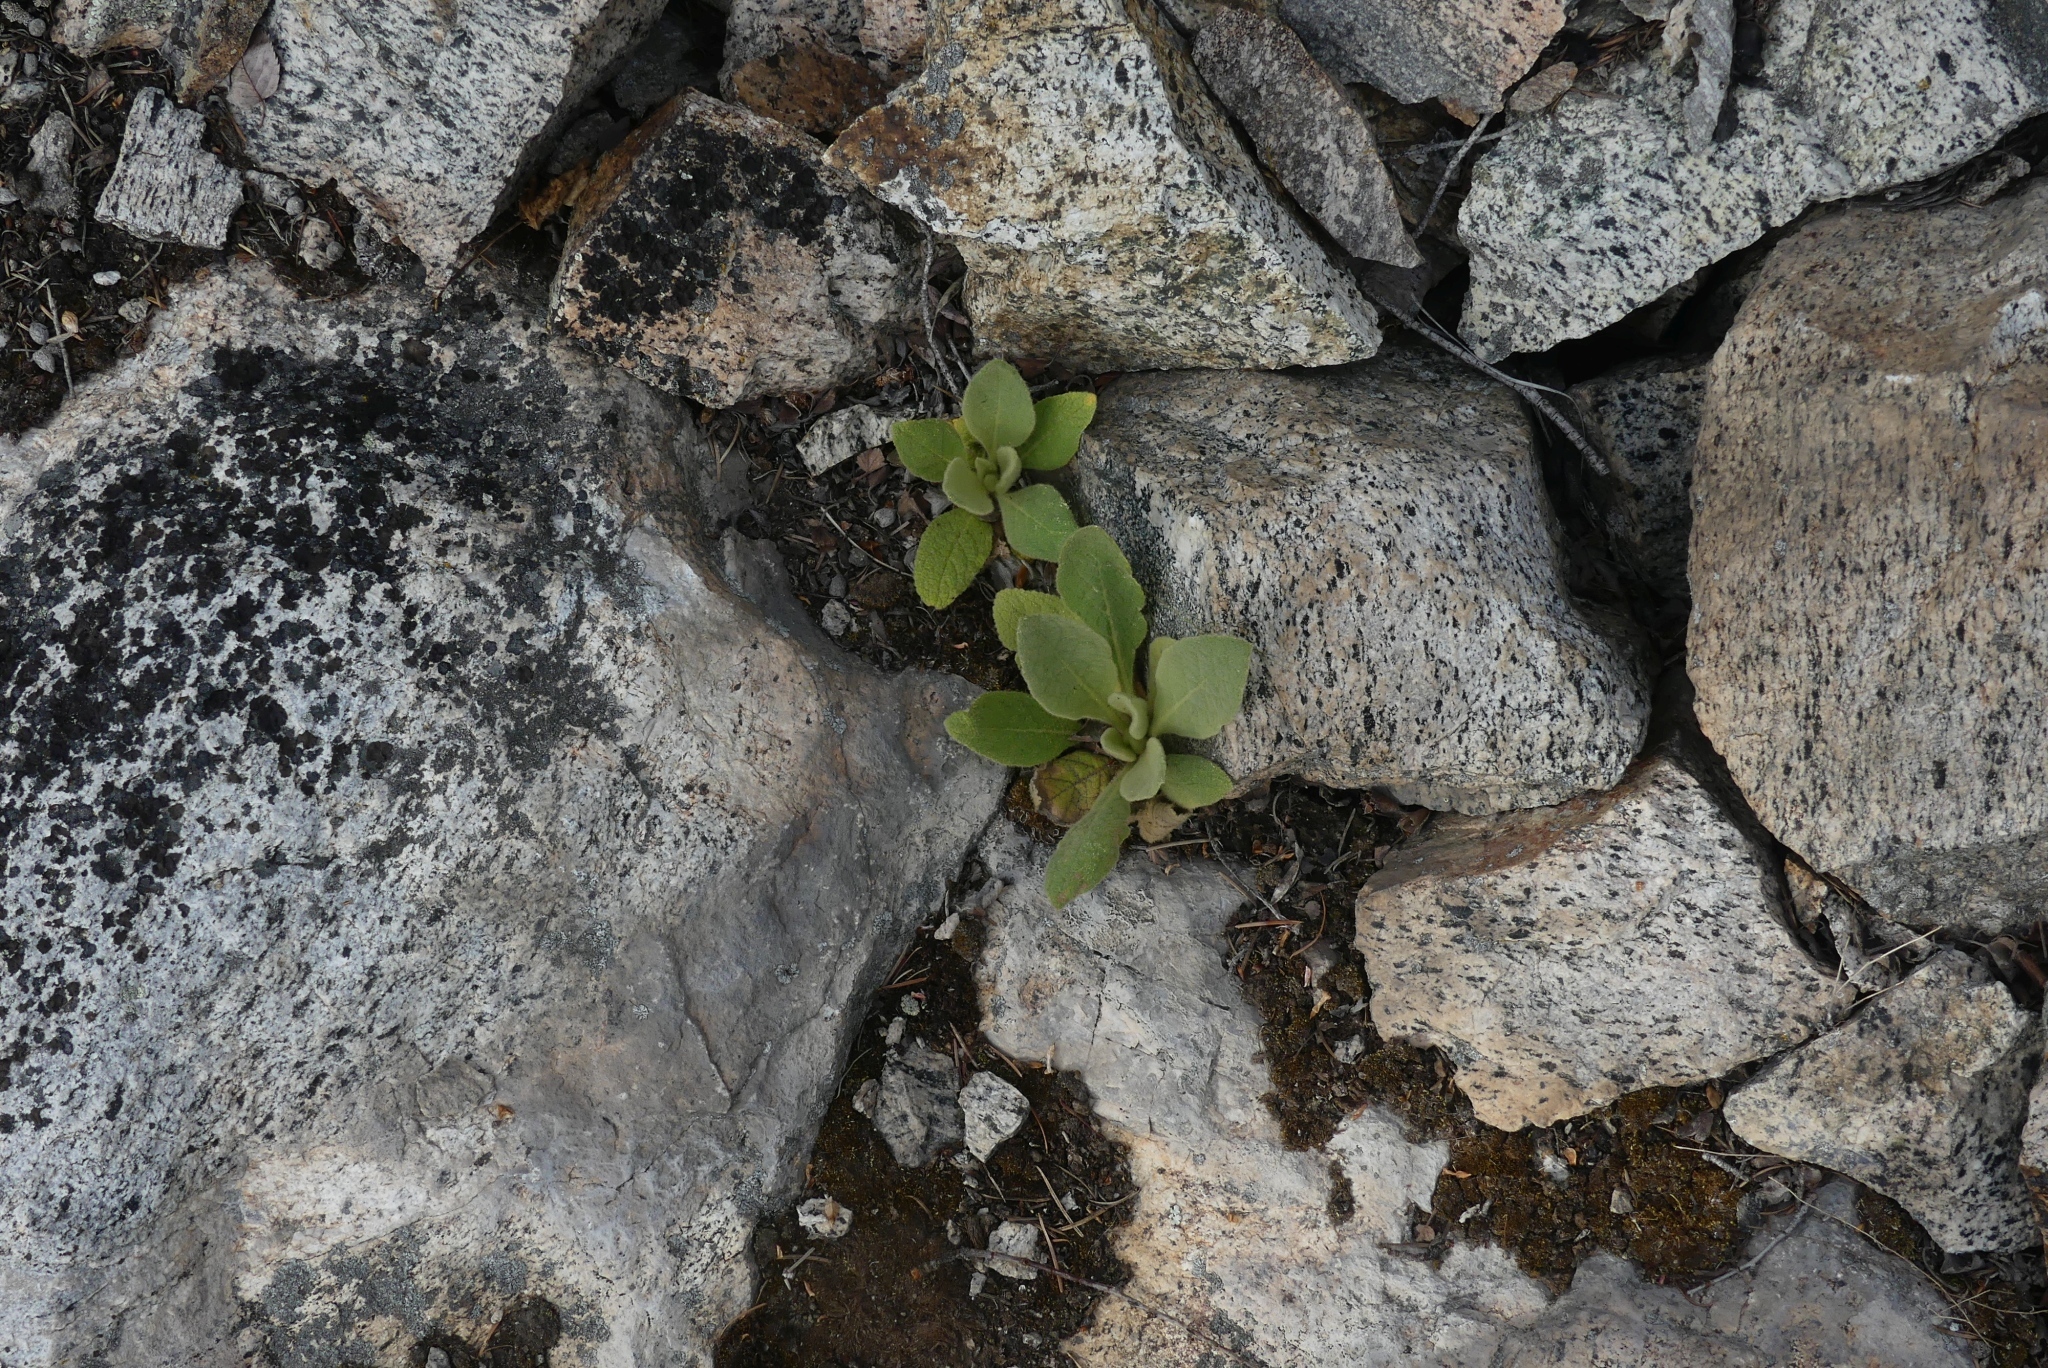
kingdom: Plantae
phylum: Tracheophyta
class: Magnoliopsida
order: Lamiales
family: Scrophulariaceae
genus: Verbascum
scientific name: Verbascum thapsus
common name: Common mullein
